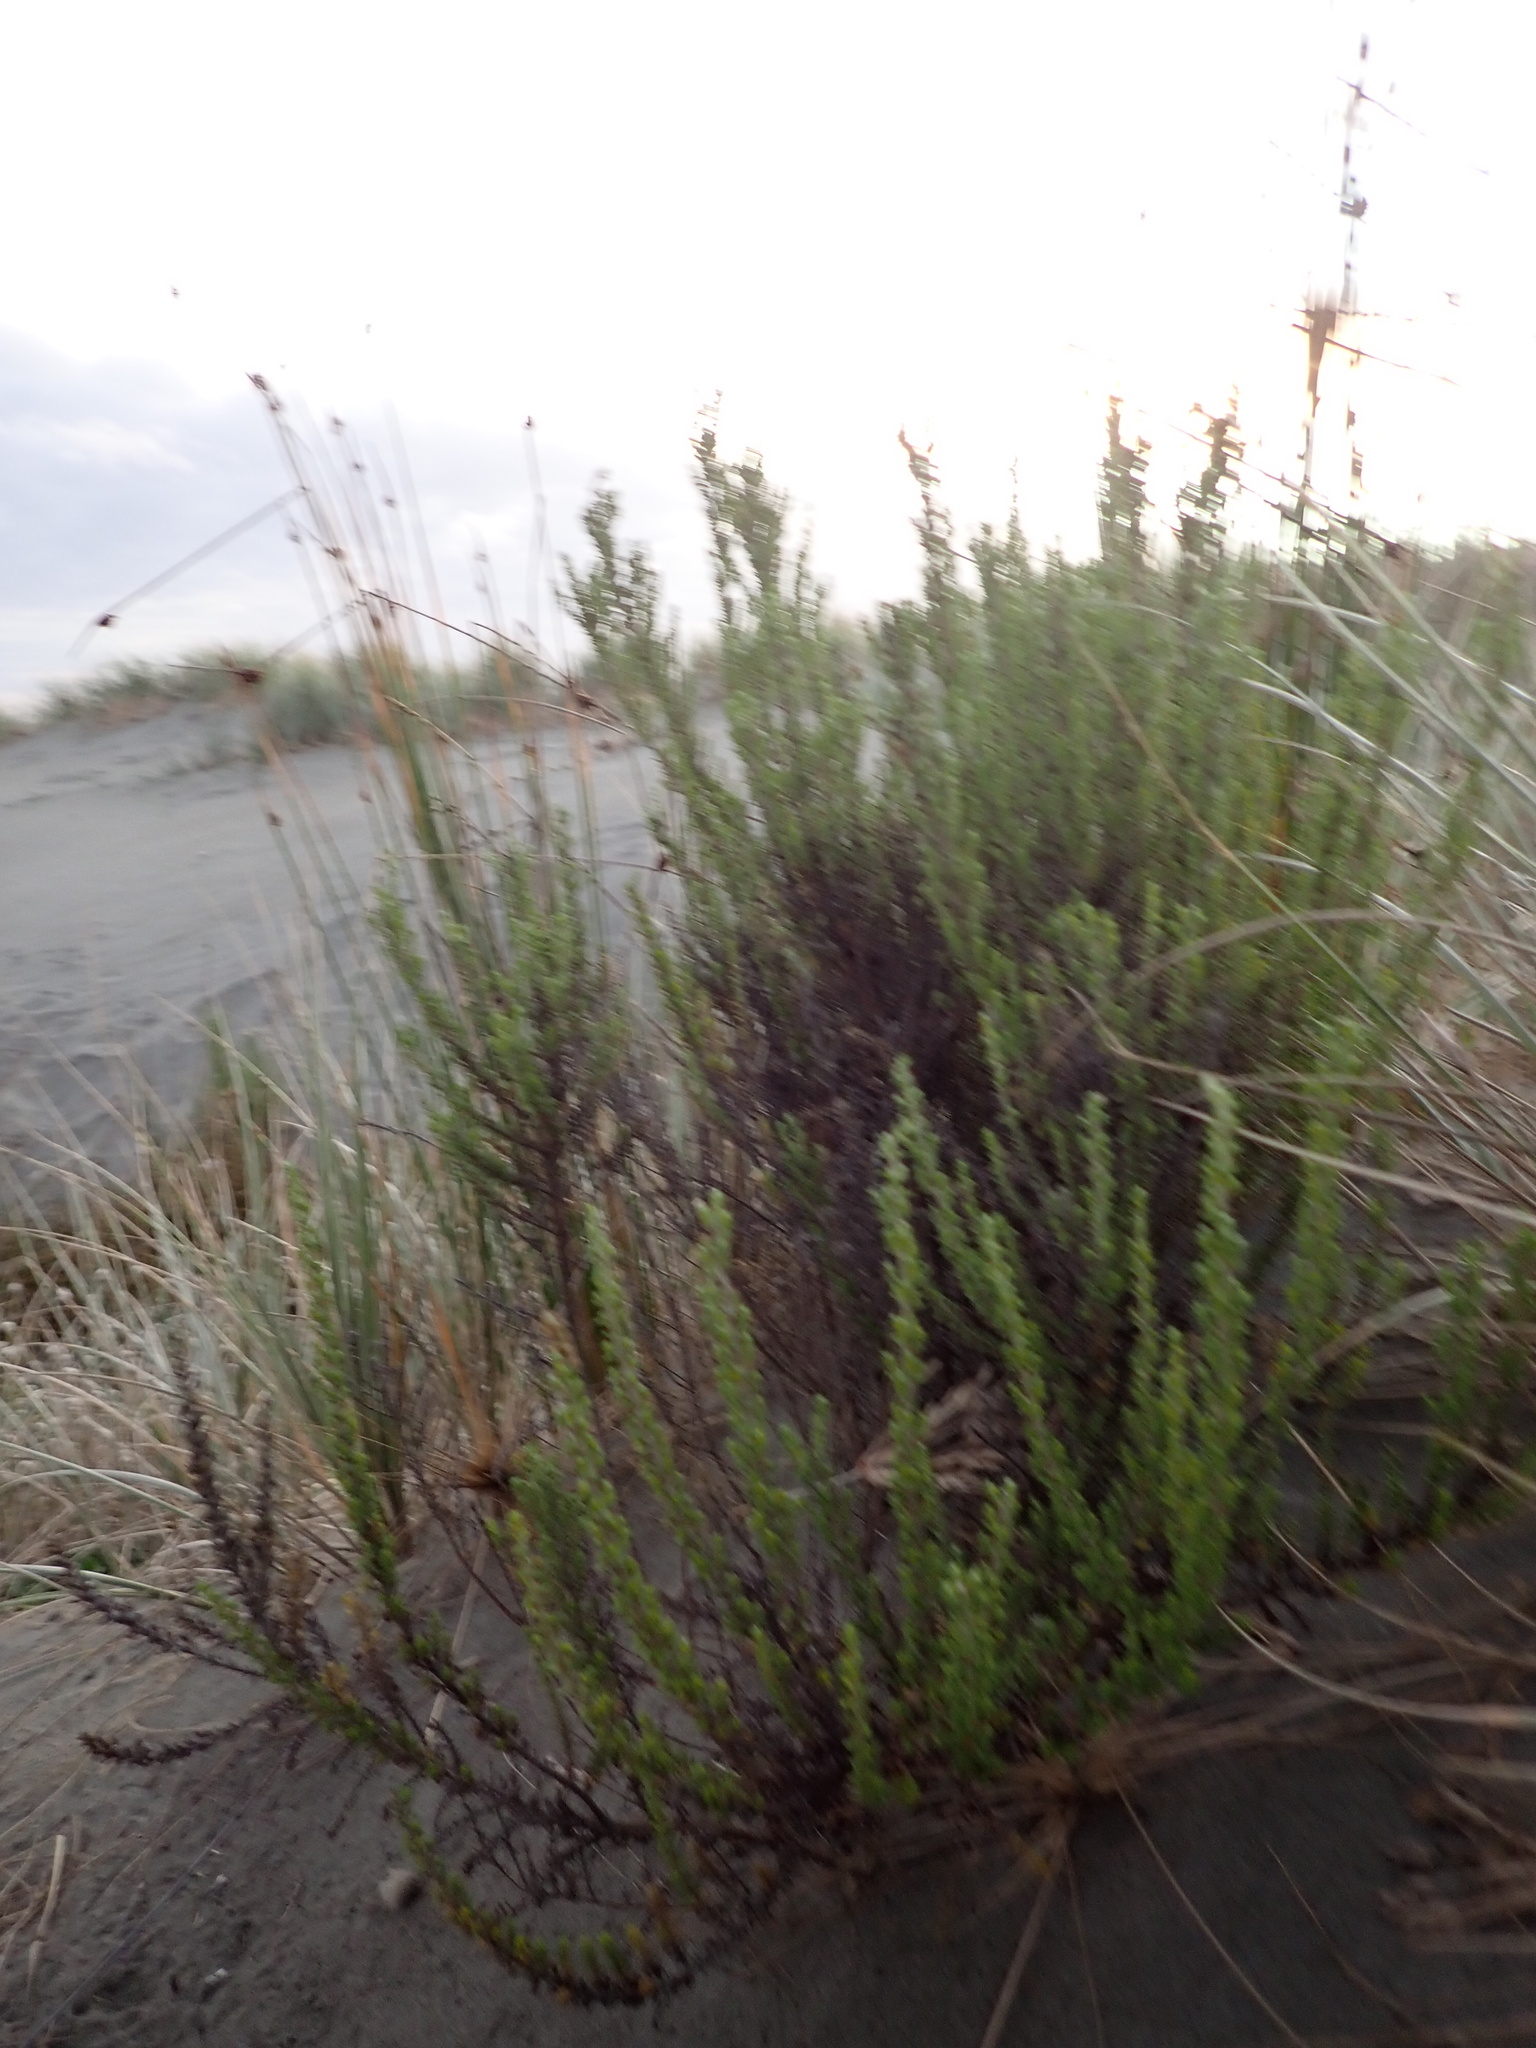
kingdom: Plantae
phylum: Tracheophyta
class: Magnoliopsida
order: Asterales
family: Asteraceae
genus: Ozothamnus
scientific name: Ozothamnus leptophyllus
